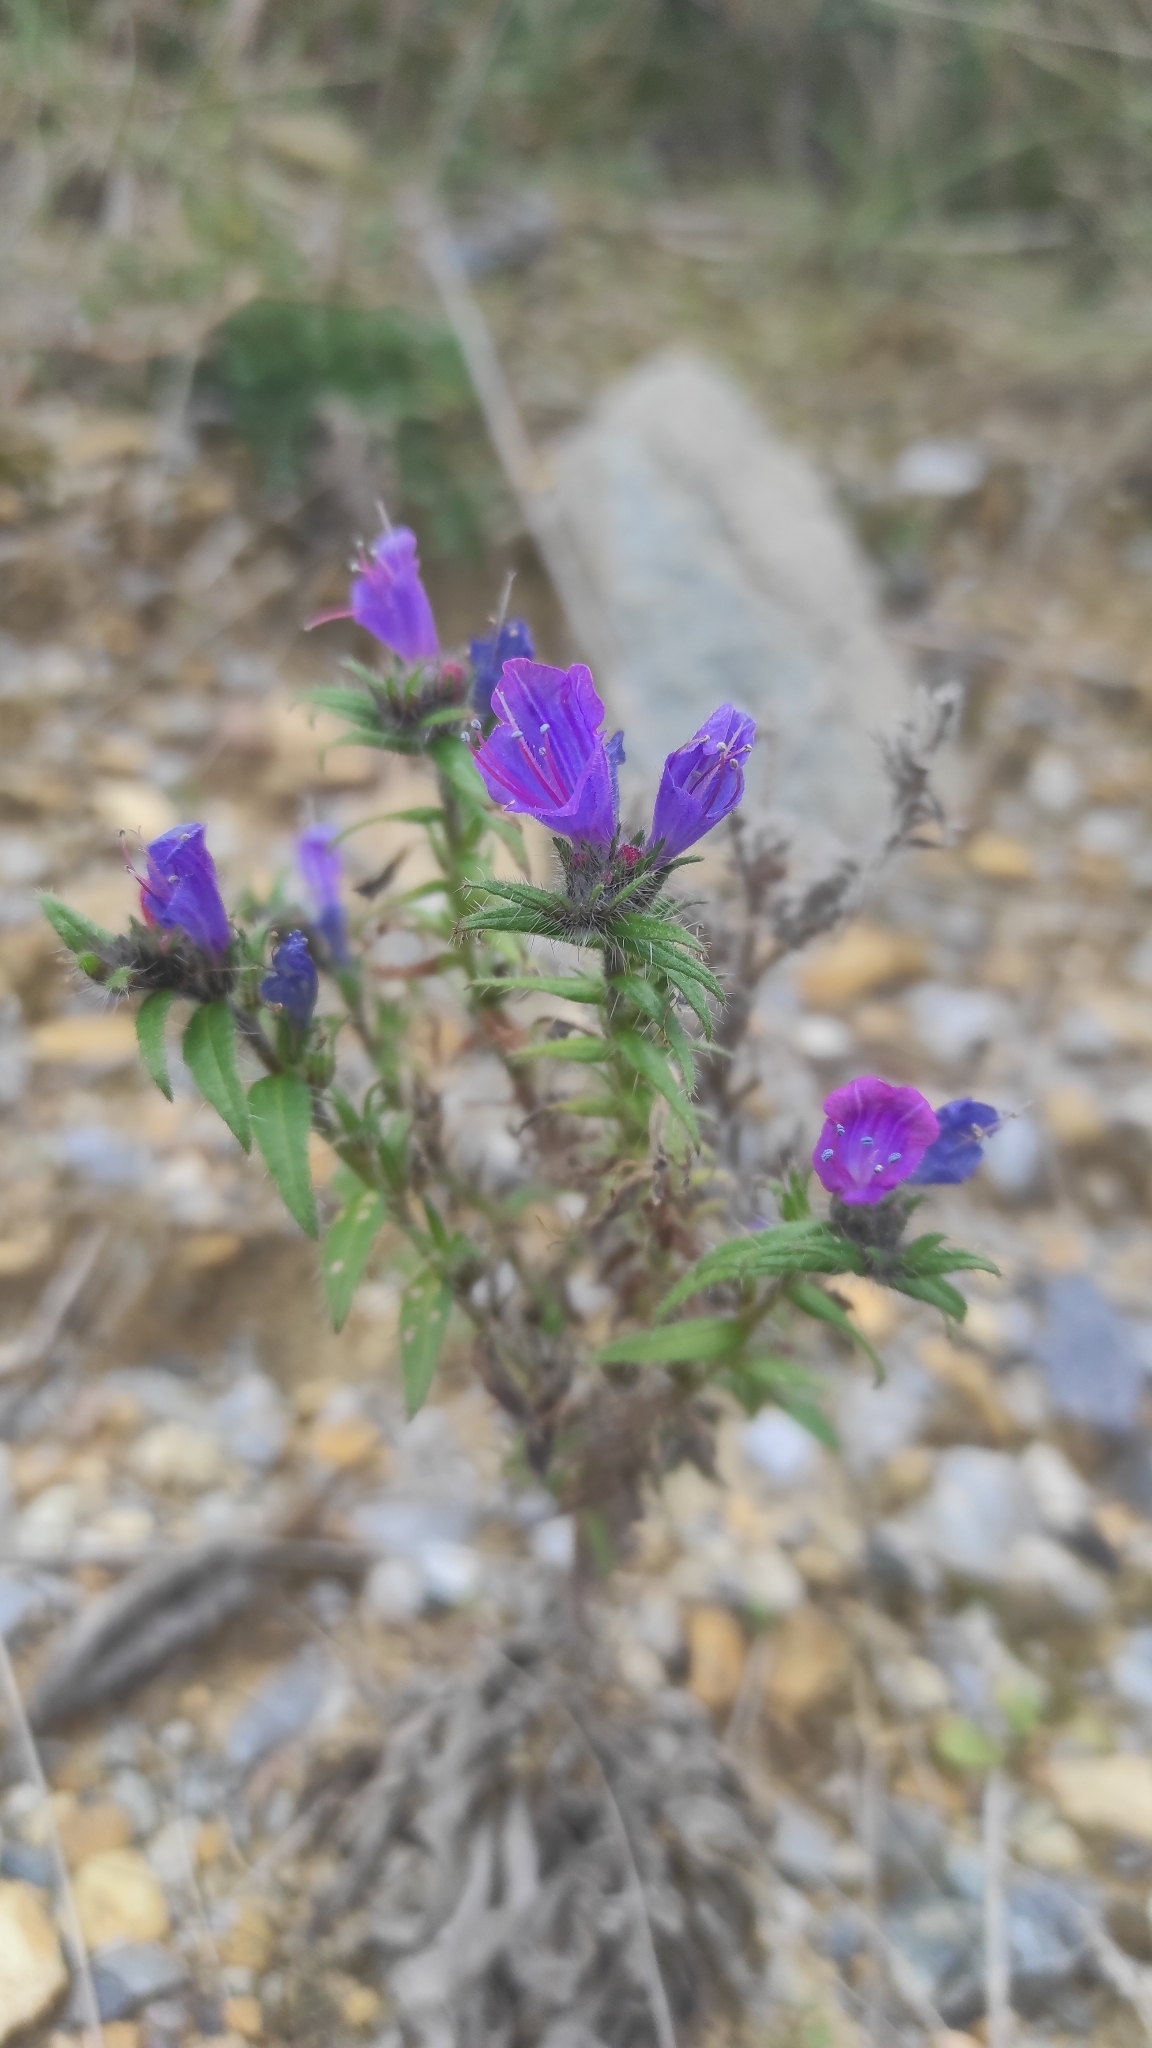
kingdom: Plantae
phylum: Tracheophyta
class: Magnoliopsida
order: Boraginales
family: Boraginaceae
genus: Echium
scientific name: Echium vulgare
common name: Common viper's bugloss
